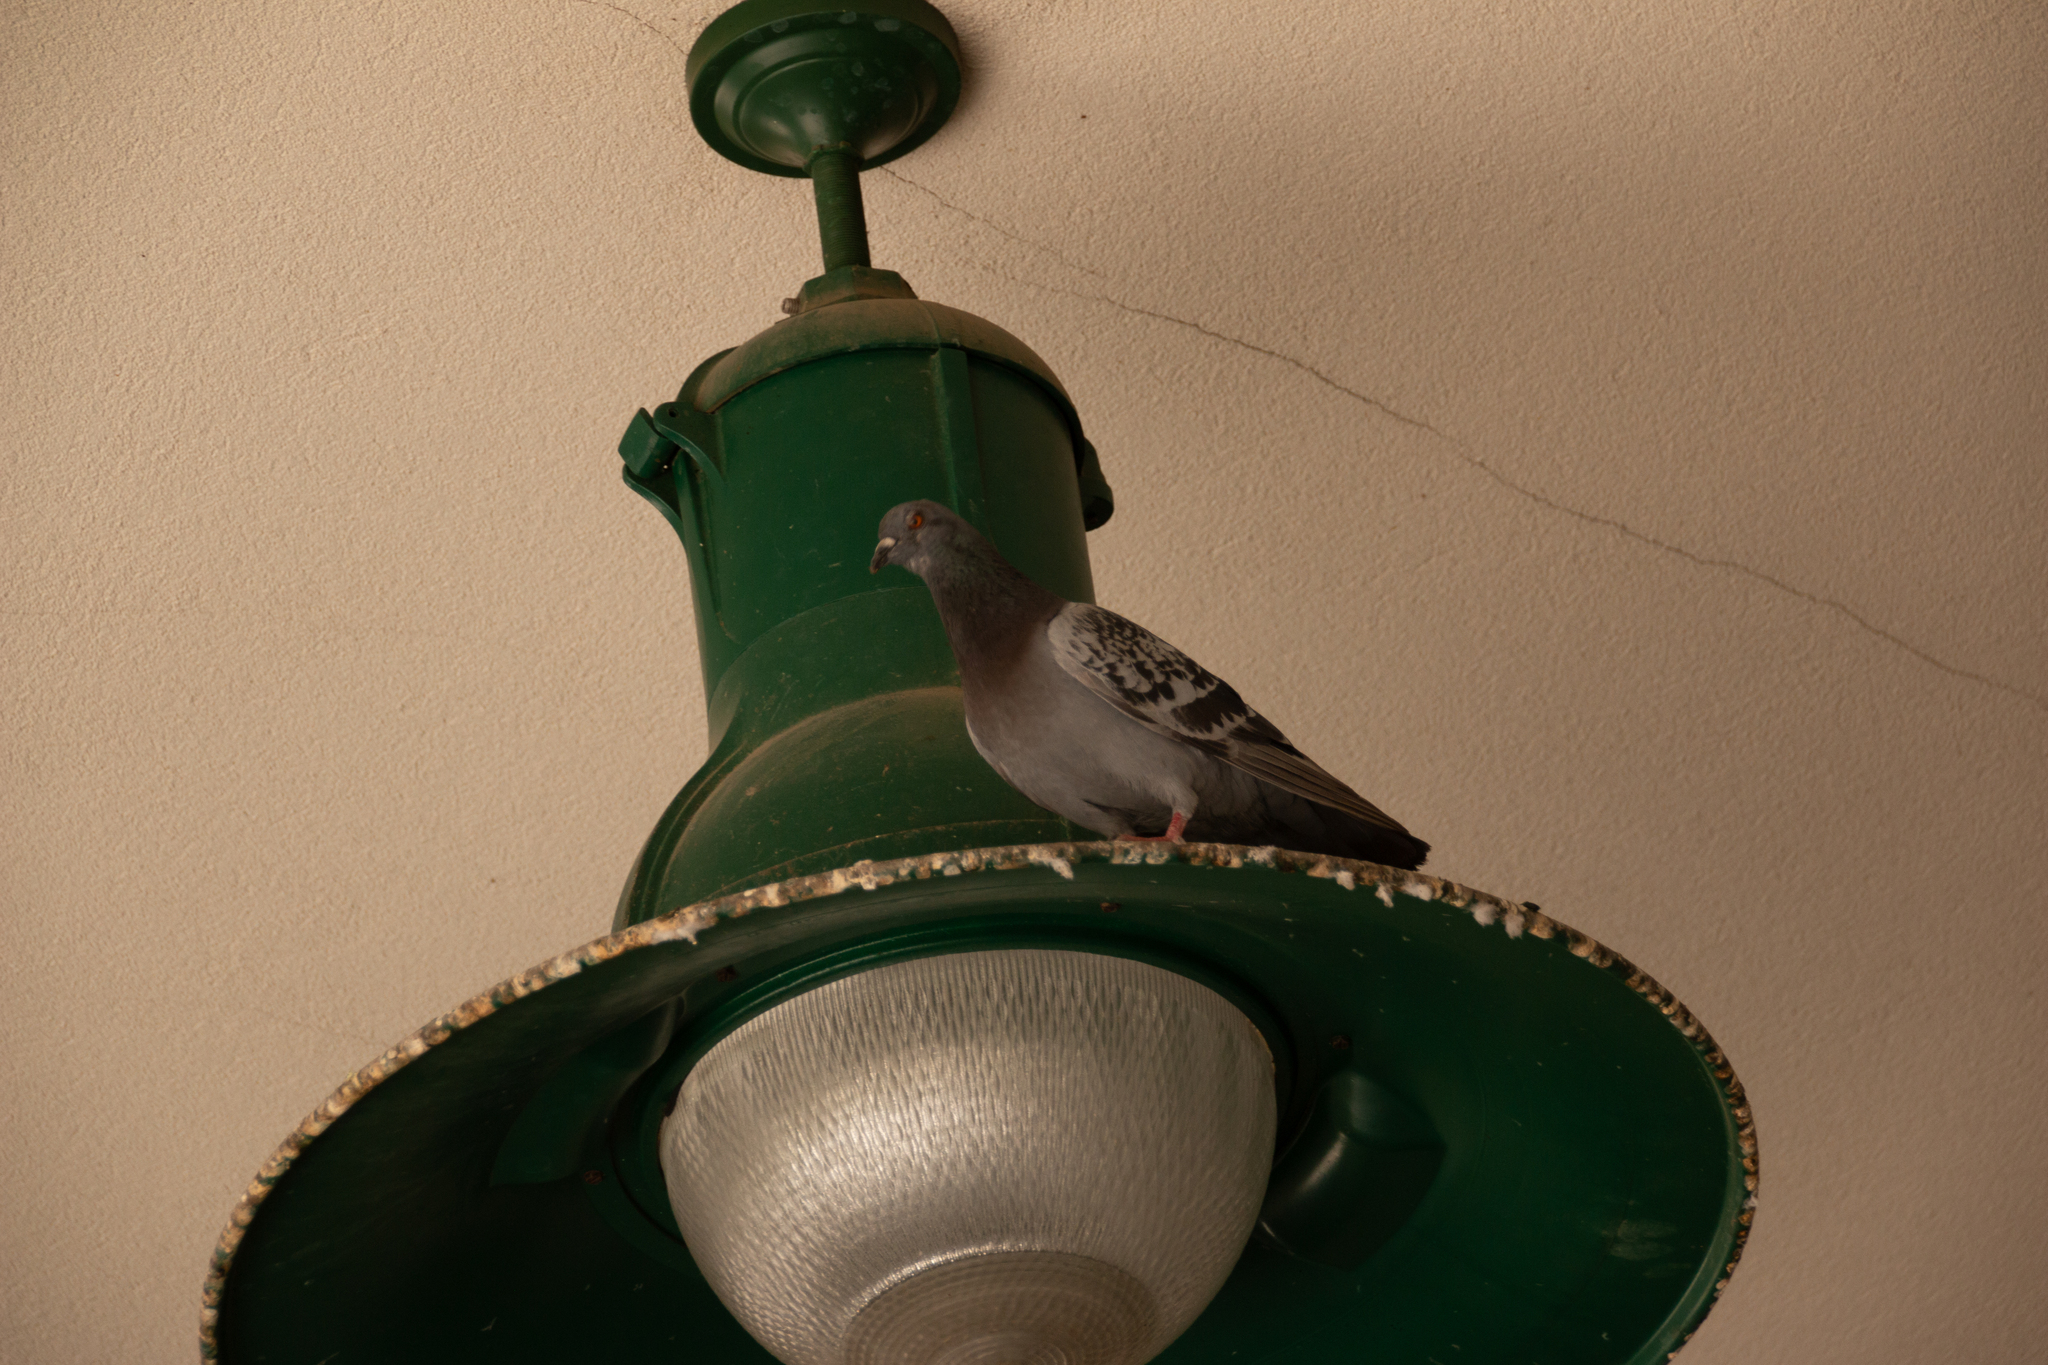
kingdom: Animalia
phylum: Chordata
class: Aves
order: Columbiformes
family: Columbidae
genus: Columba
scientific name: Columba livia
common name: Rock pigeon
